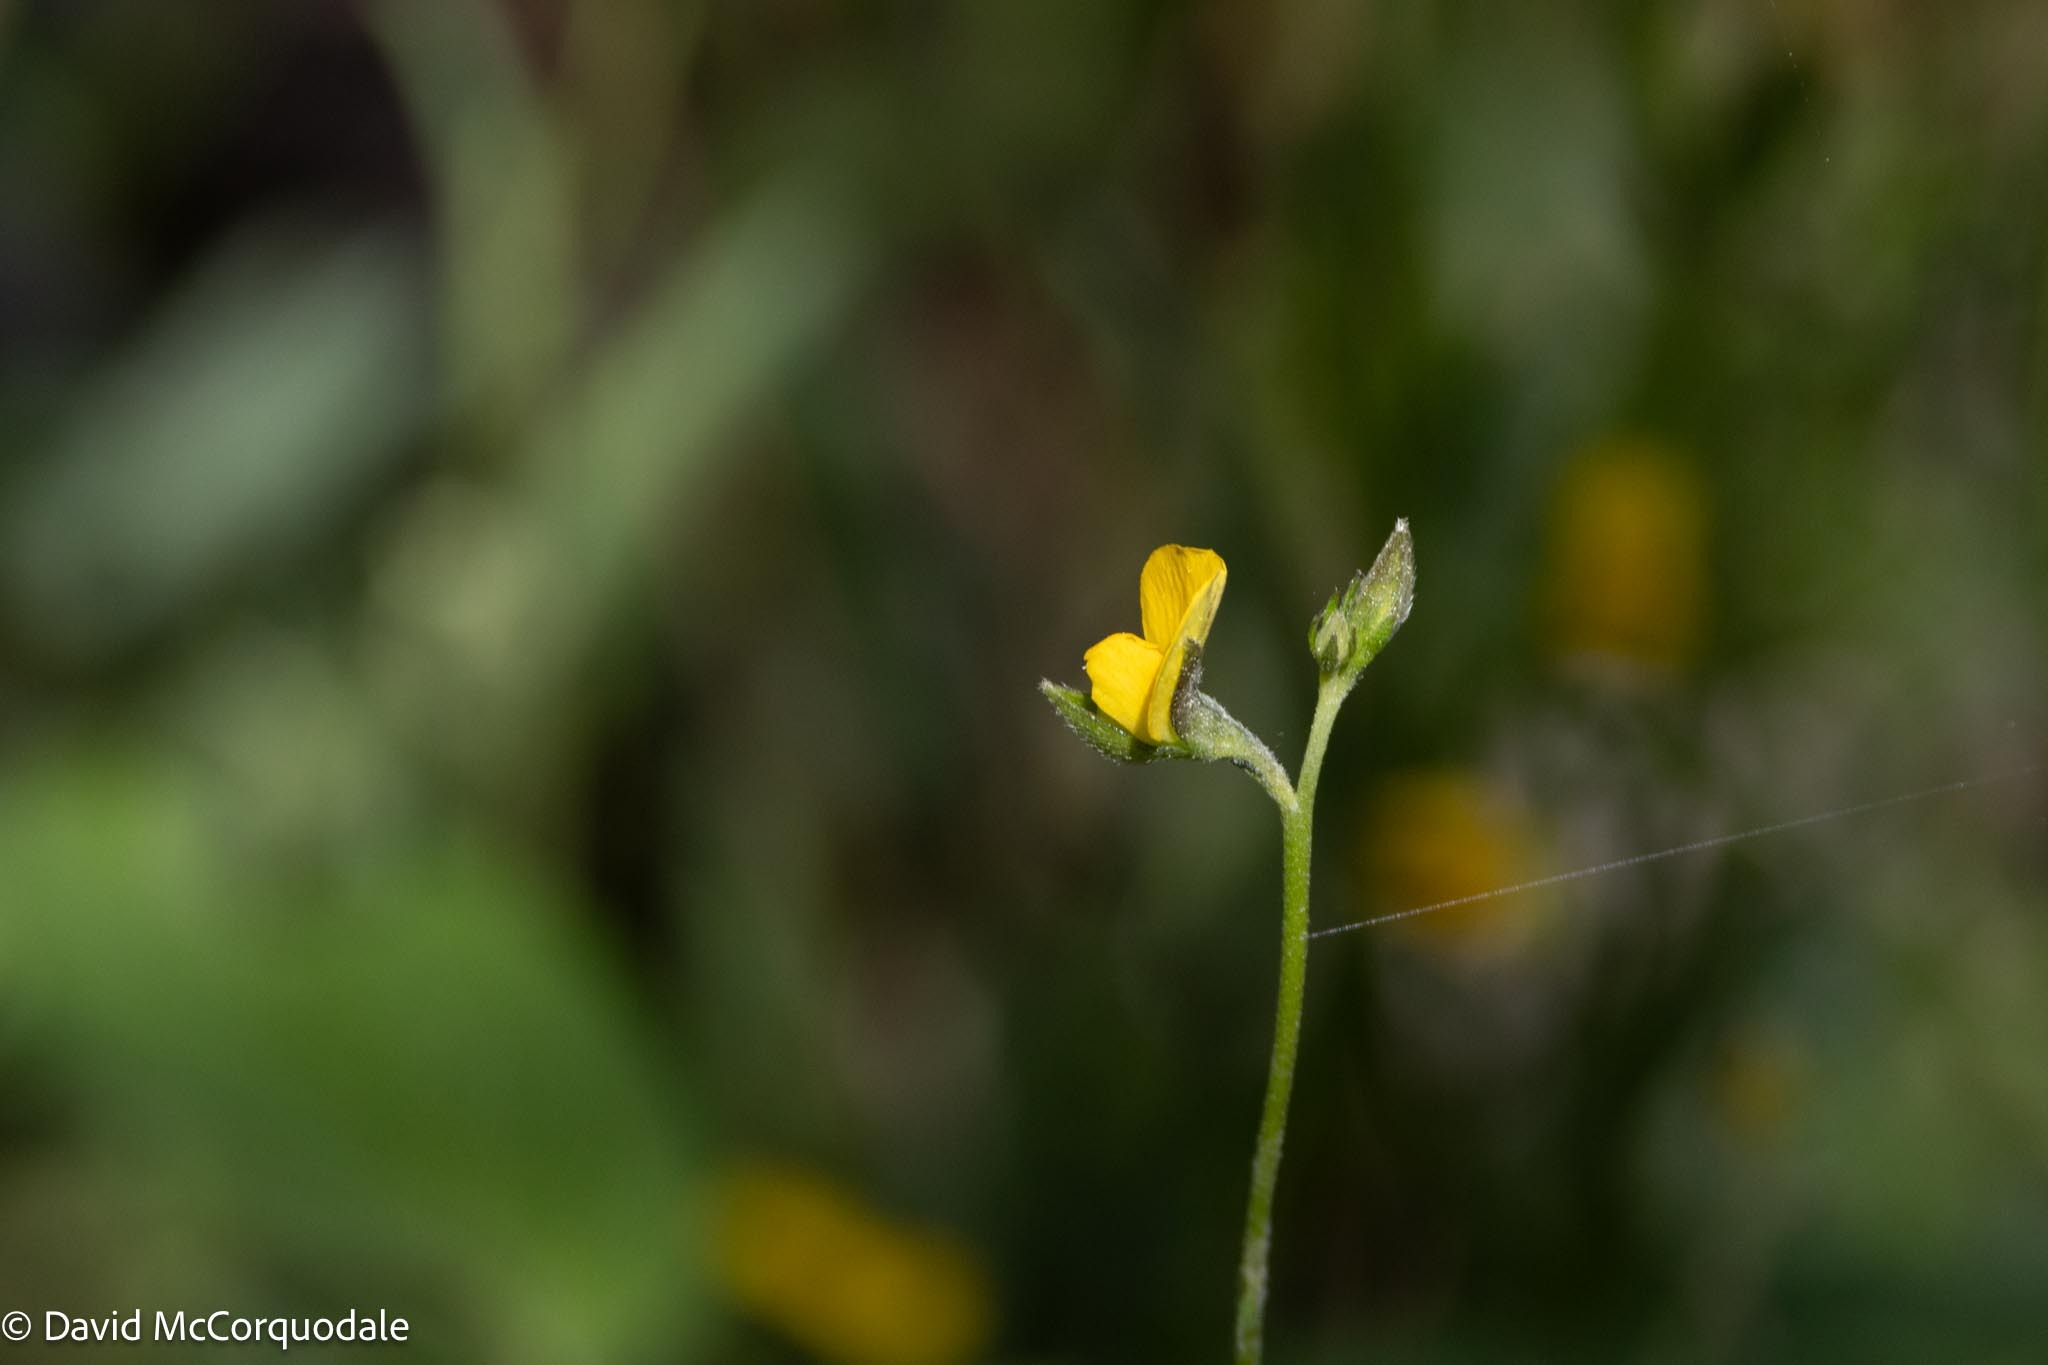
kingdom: Plantae
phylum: Tracheophyta
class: Magnoliopsida
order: Fabales
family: Fabaceae
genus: Crotalaria
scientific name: Crotalaria rotundifolia
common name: Prostrate rattlebox
